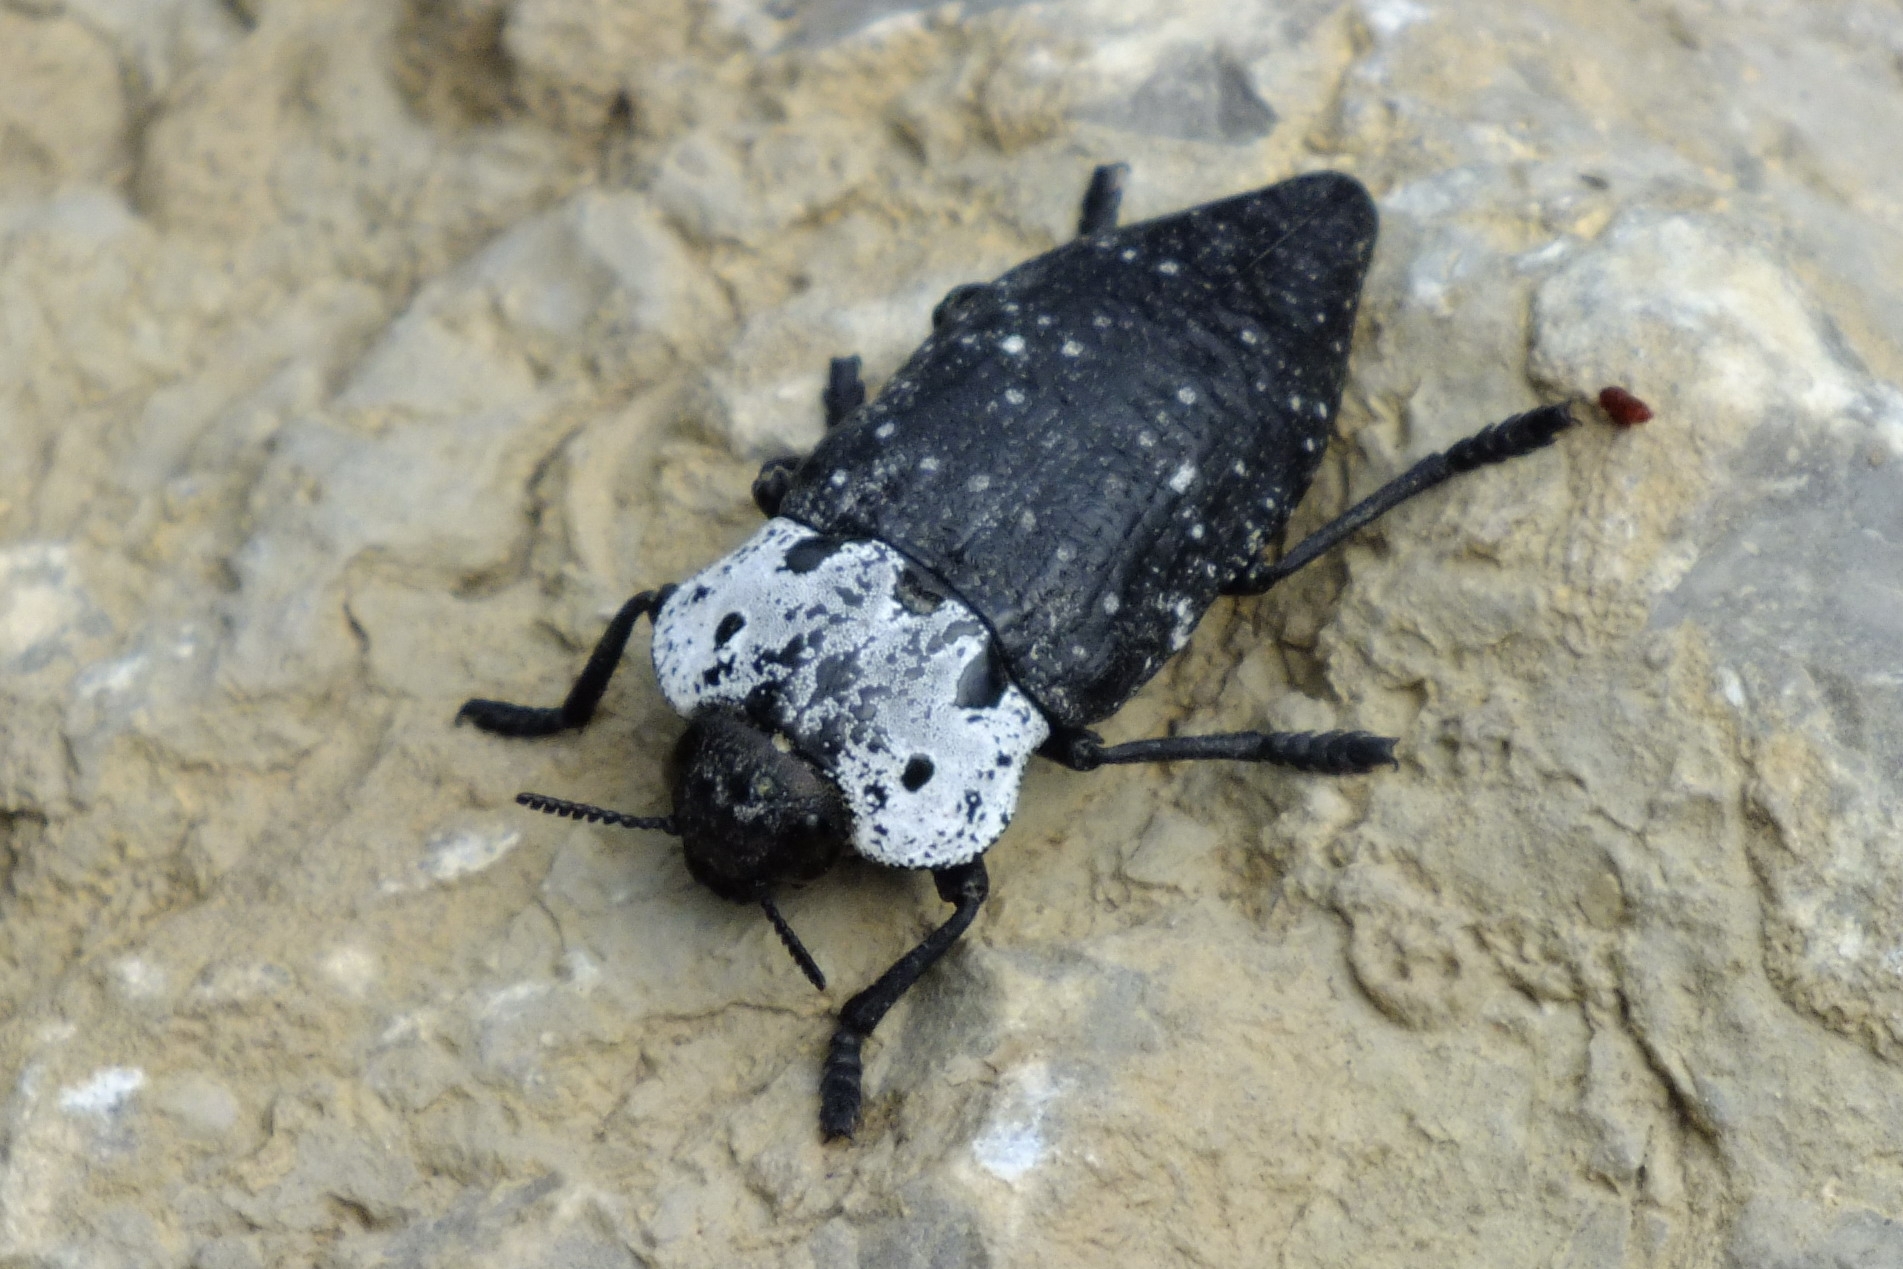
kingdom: Animalia
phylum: Arthropoda
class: Insecta
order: Coleoptera
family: Buprestidae
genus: Capnodis
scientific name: Capnodis tenebrionis
